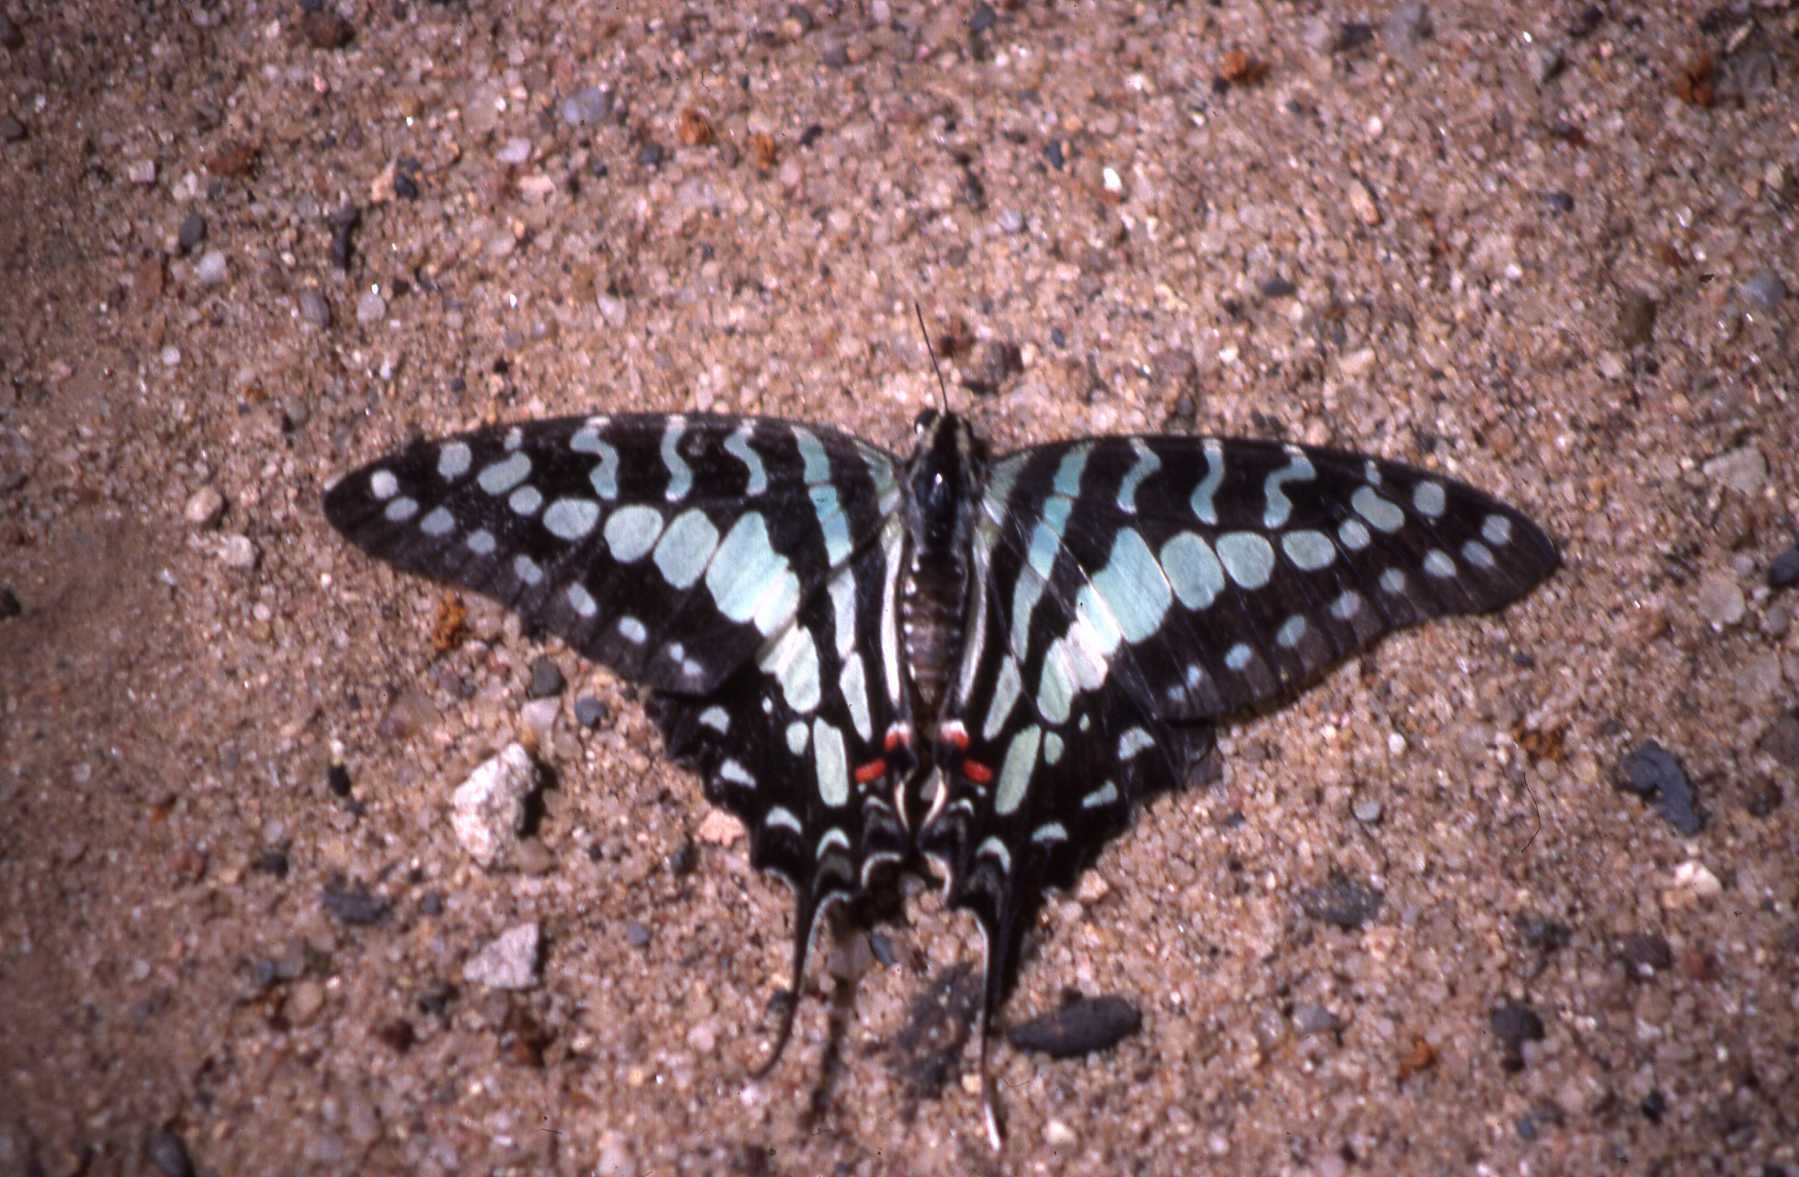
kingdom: Animalia
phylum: Arthropoda
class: Insecta
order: Lepidoptera
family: Papilionidae
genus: Graphium
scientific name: Graphium antheus
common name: Large striped swordtail
